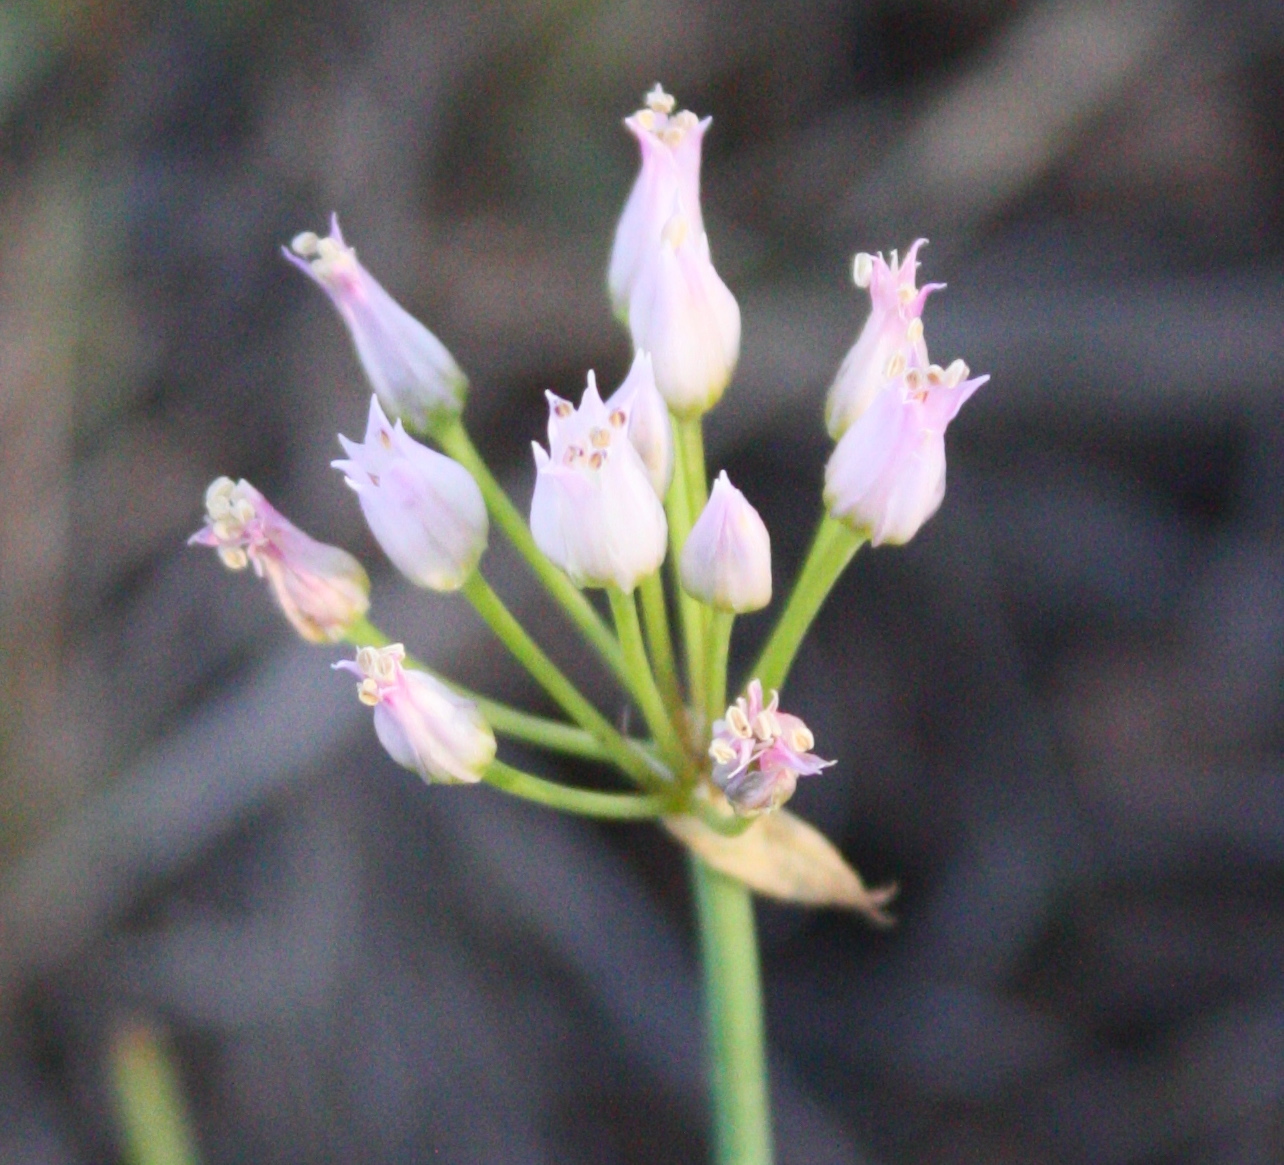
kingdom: Plantae
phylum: Tracheophyta
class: Liliopsida
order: Asparagales
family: Amaryllidaceae
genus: Allium
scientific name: Allium geyeri
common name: Geyer's onion
